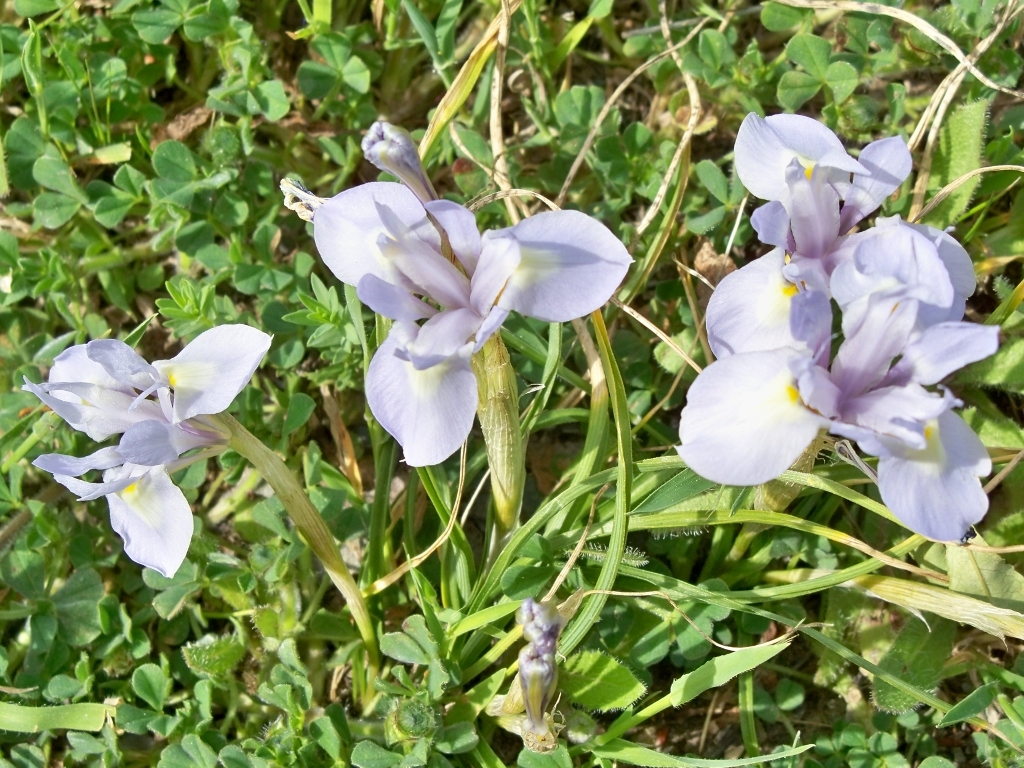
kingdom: Plantae
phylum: Tracheophyta
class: Liliopsida
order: Asparagales
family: Iridaceae
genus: Moraea
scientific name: Moraea sisyrinchium
